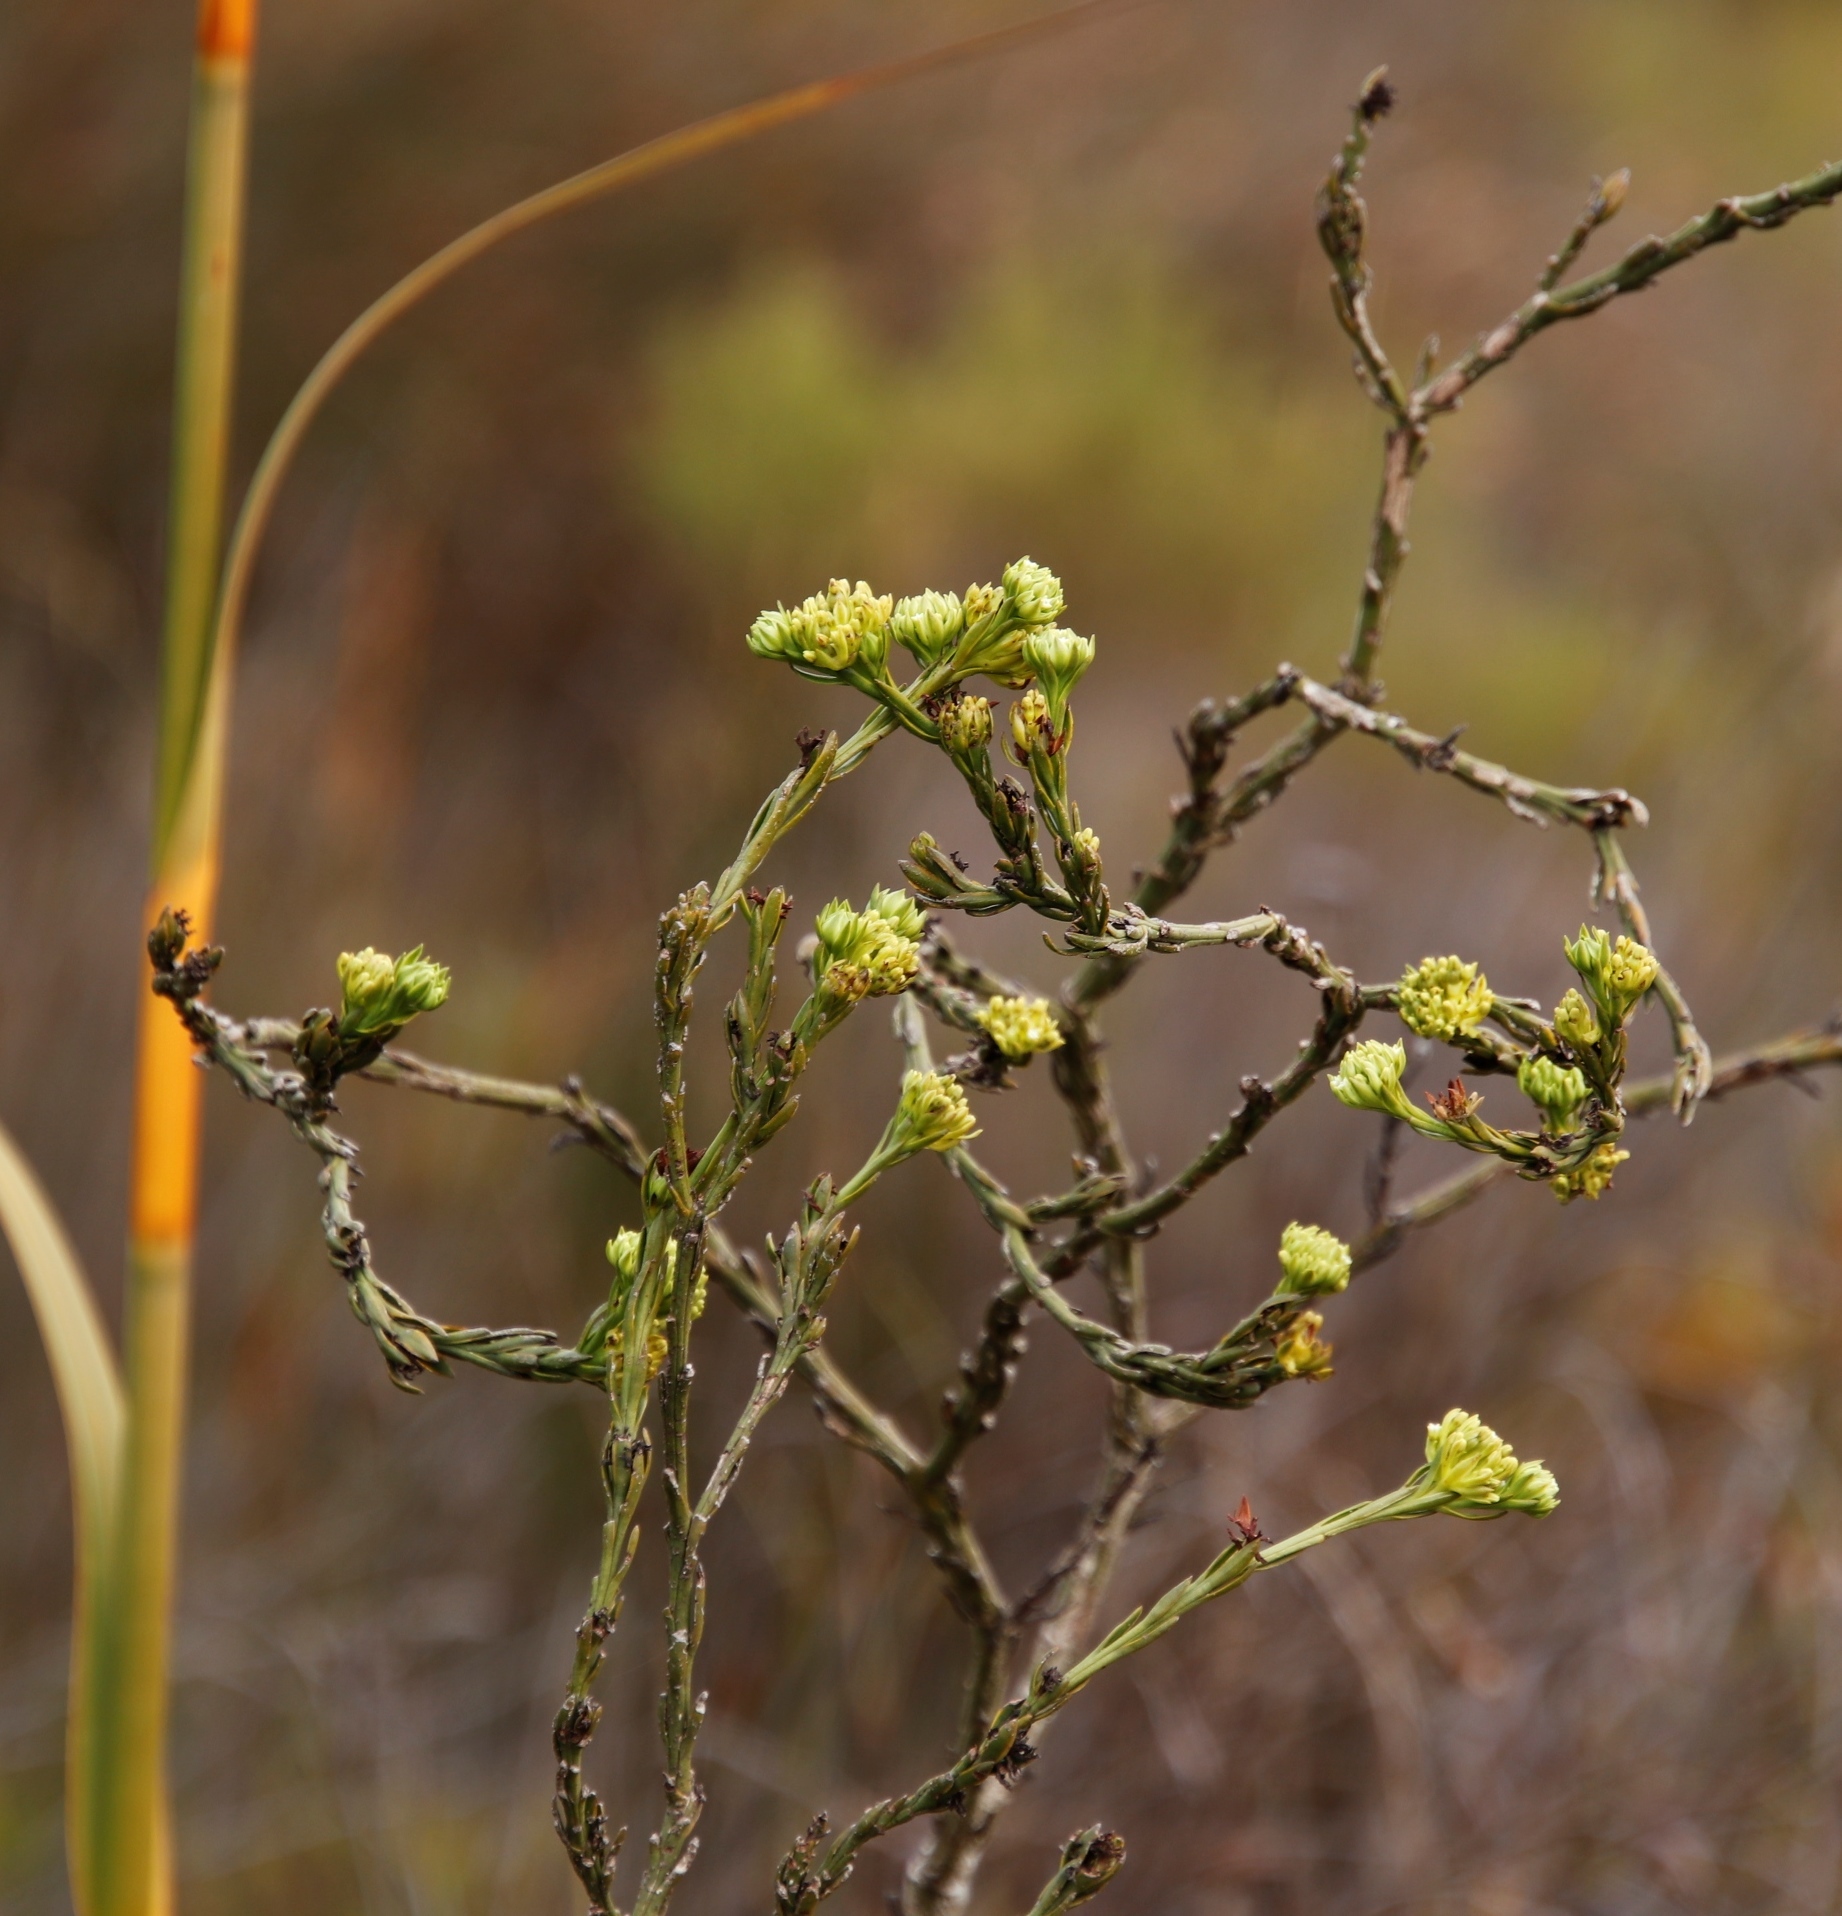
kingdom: Plantae
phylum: Tracheophyta
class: Magnoliopsida
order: Santalales
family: Thesiaceae
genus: Thesium
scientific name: Thesium fallax
